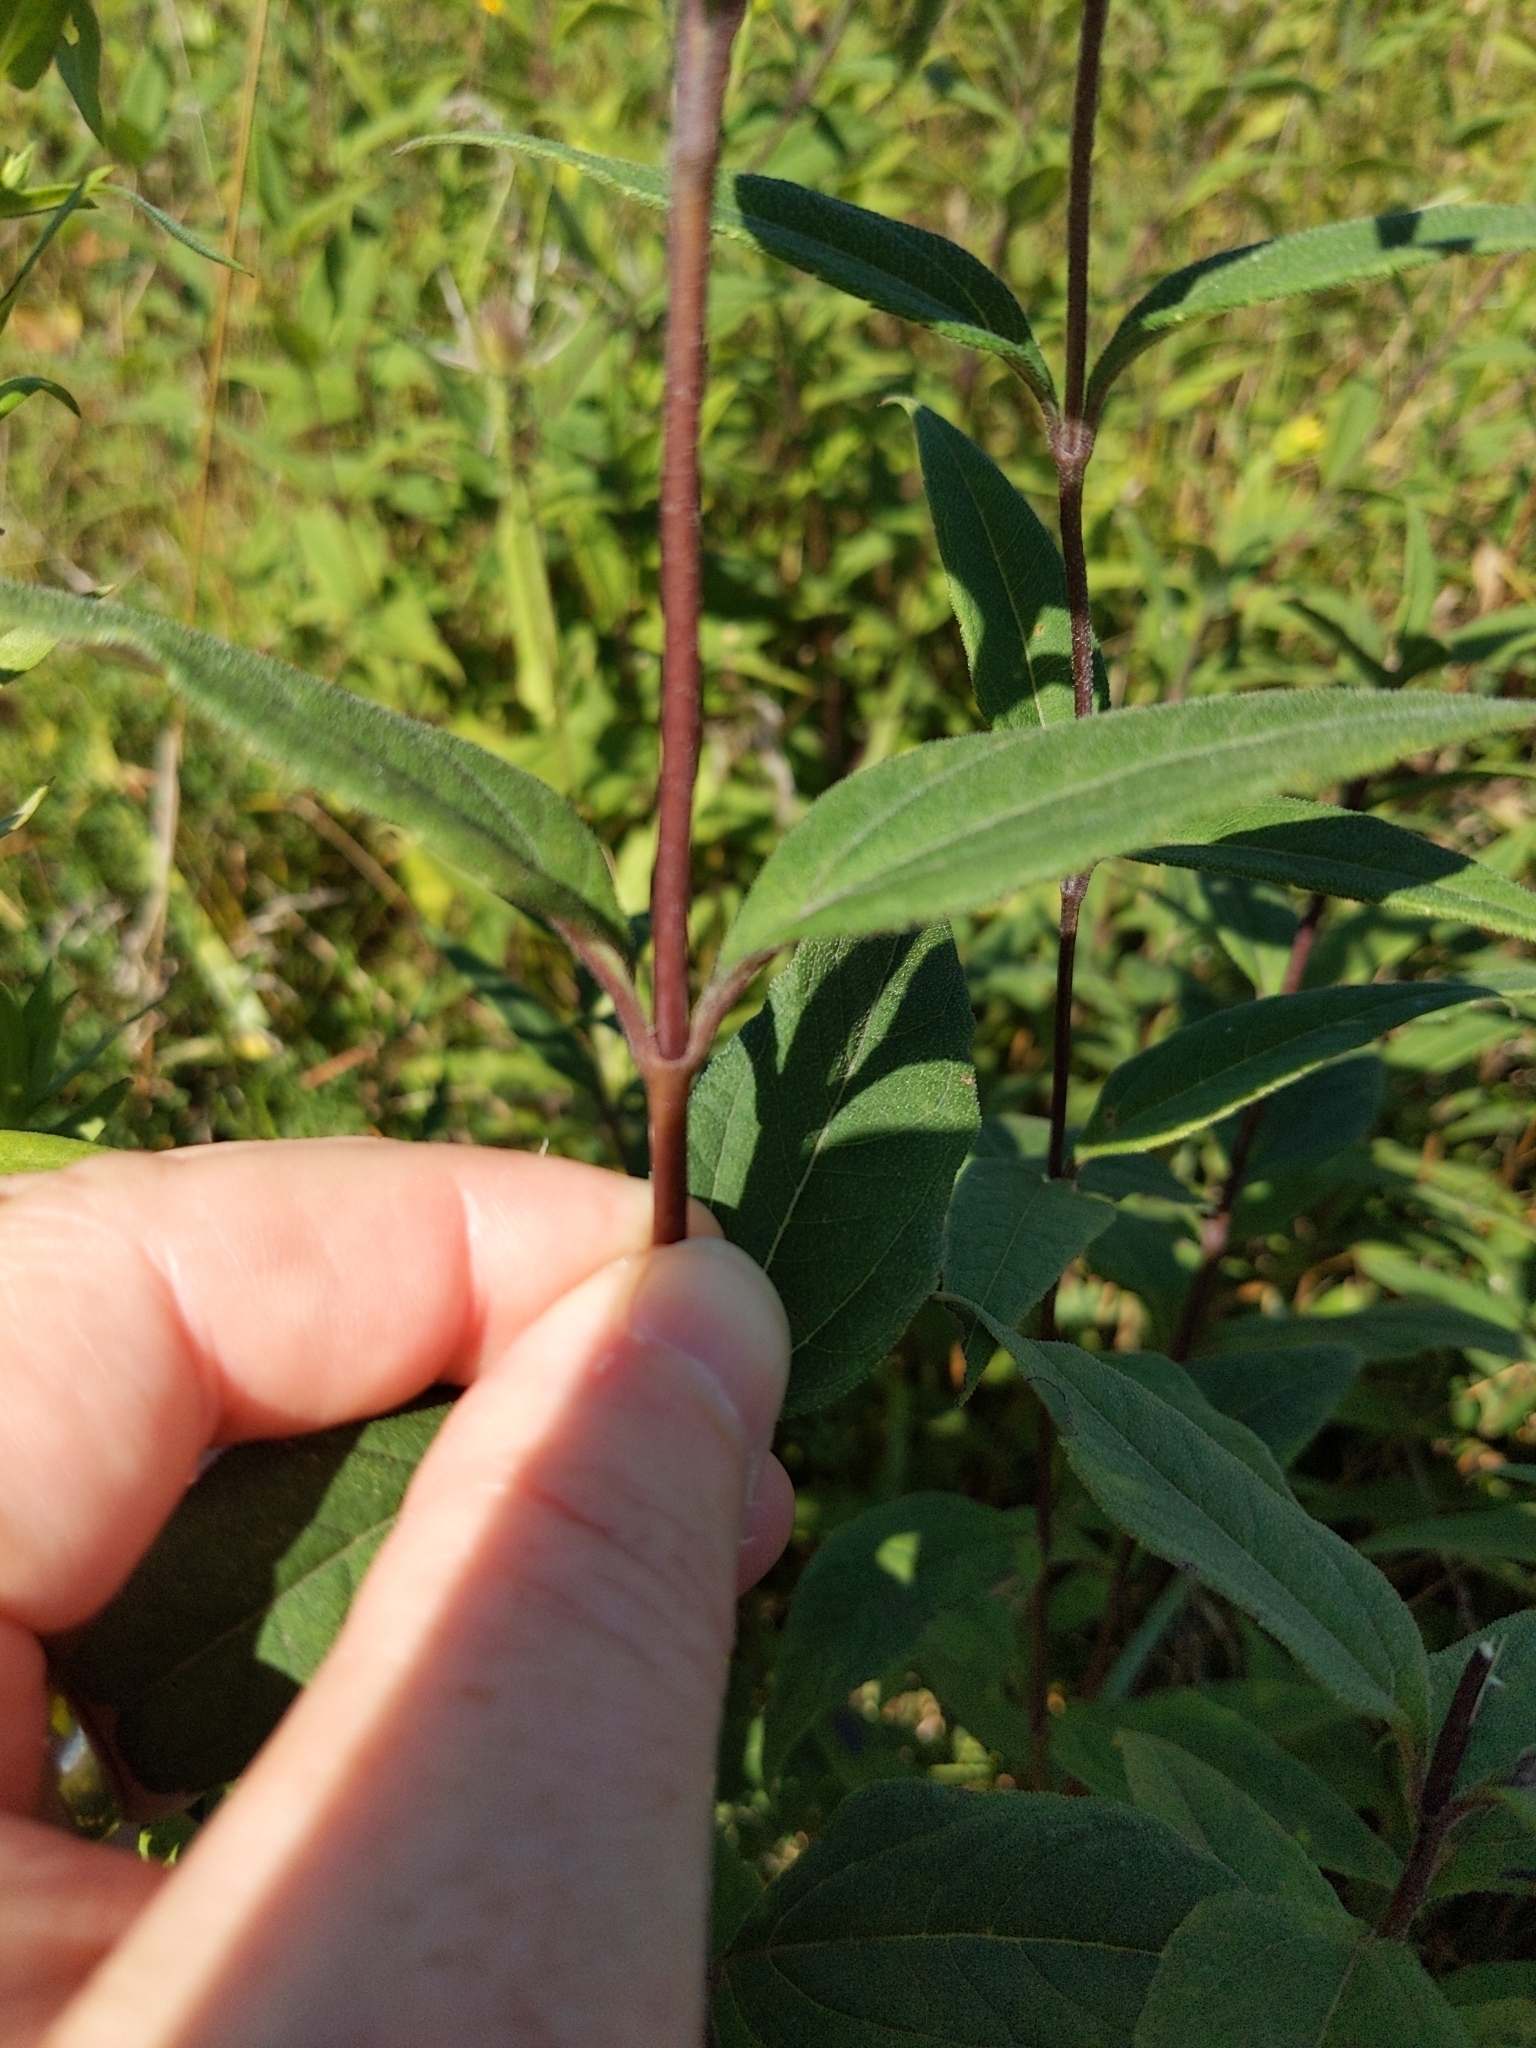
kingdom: Plantae
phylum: Tracheophyta
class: Magnoliopsida
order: Asterales
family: Asteraceae
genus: Helianthus
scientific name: Helianthus strumosus
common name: Pale-leaved sunflower
